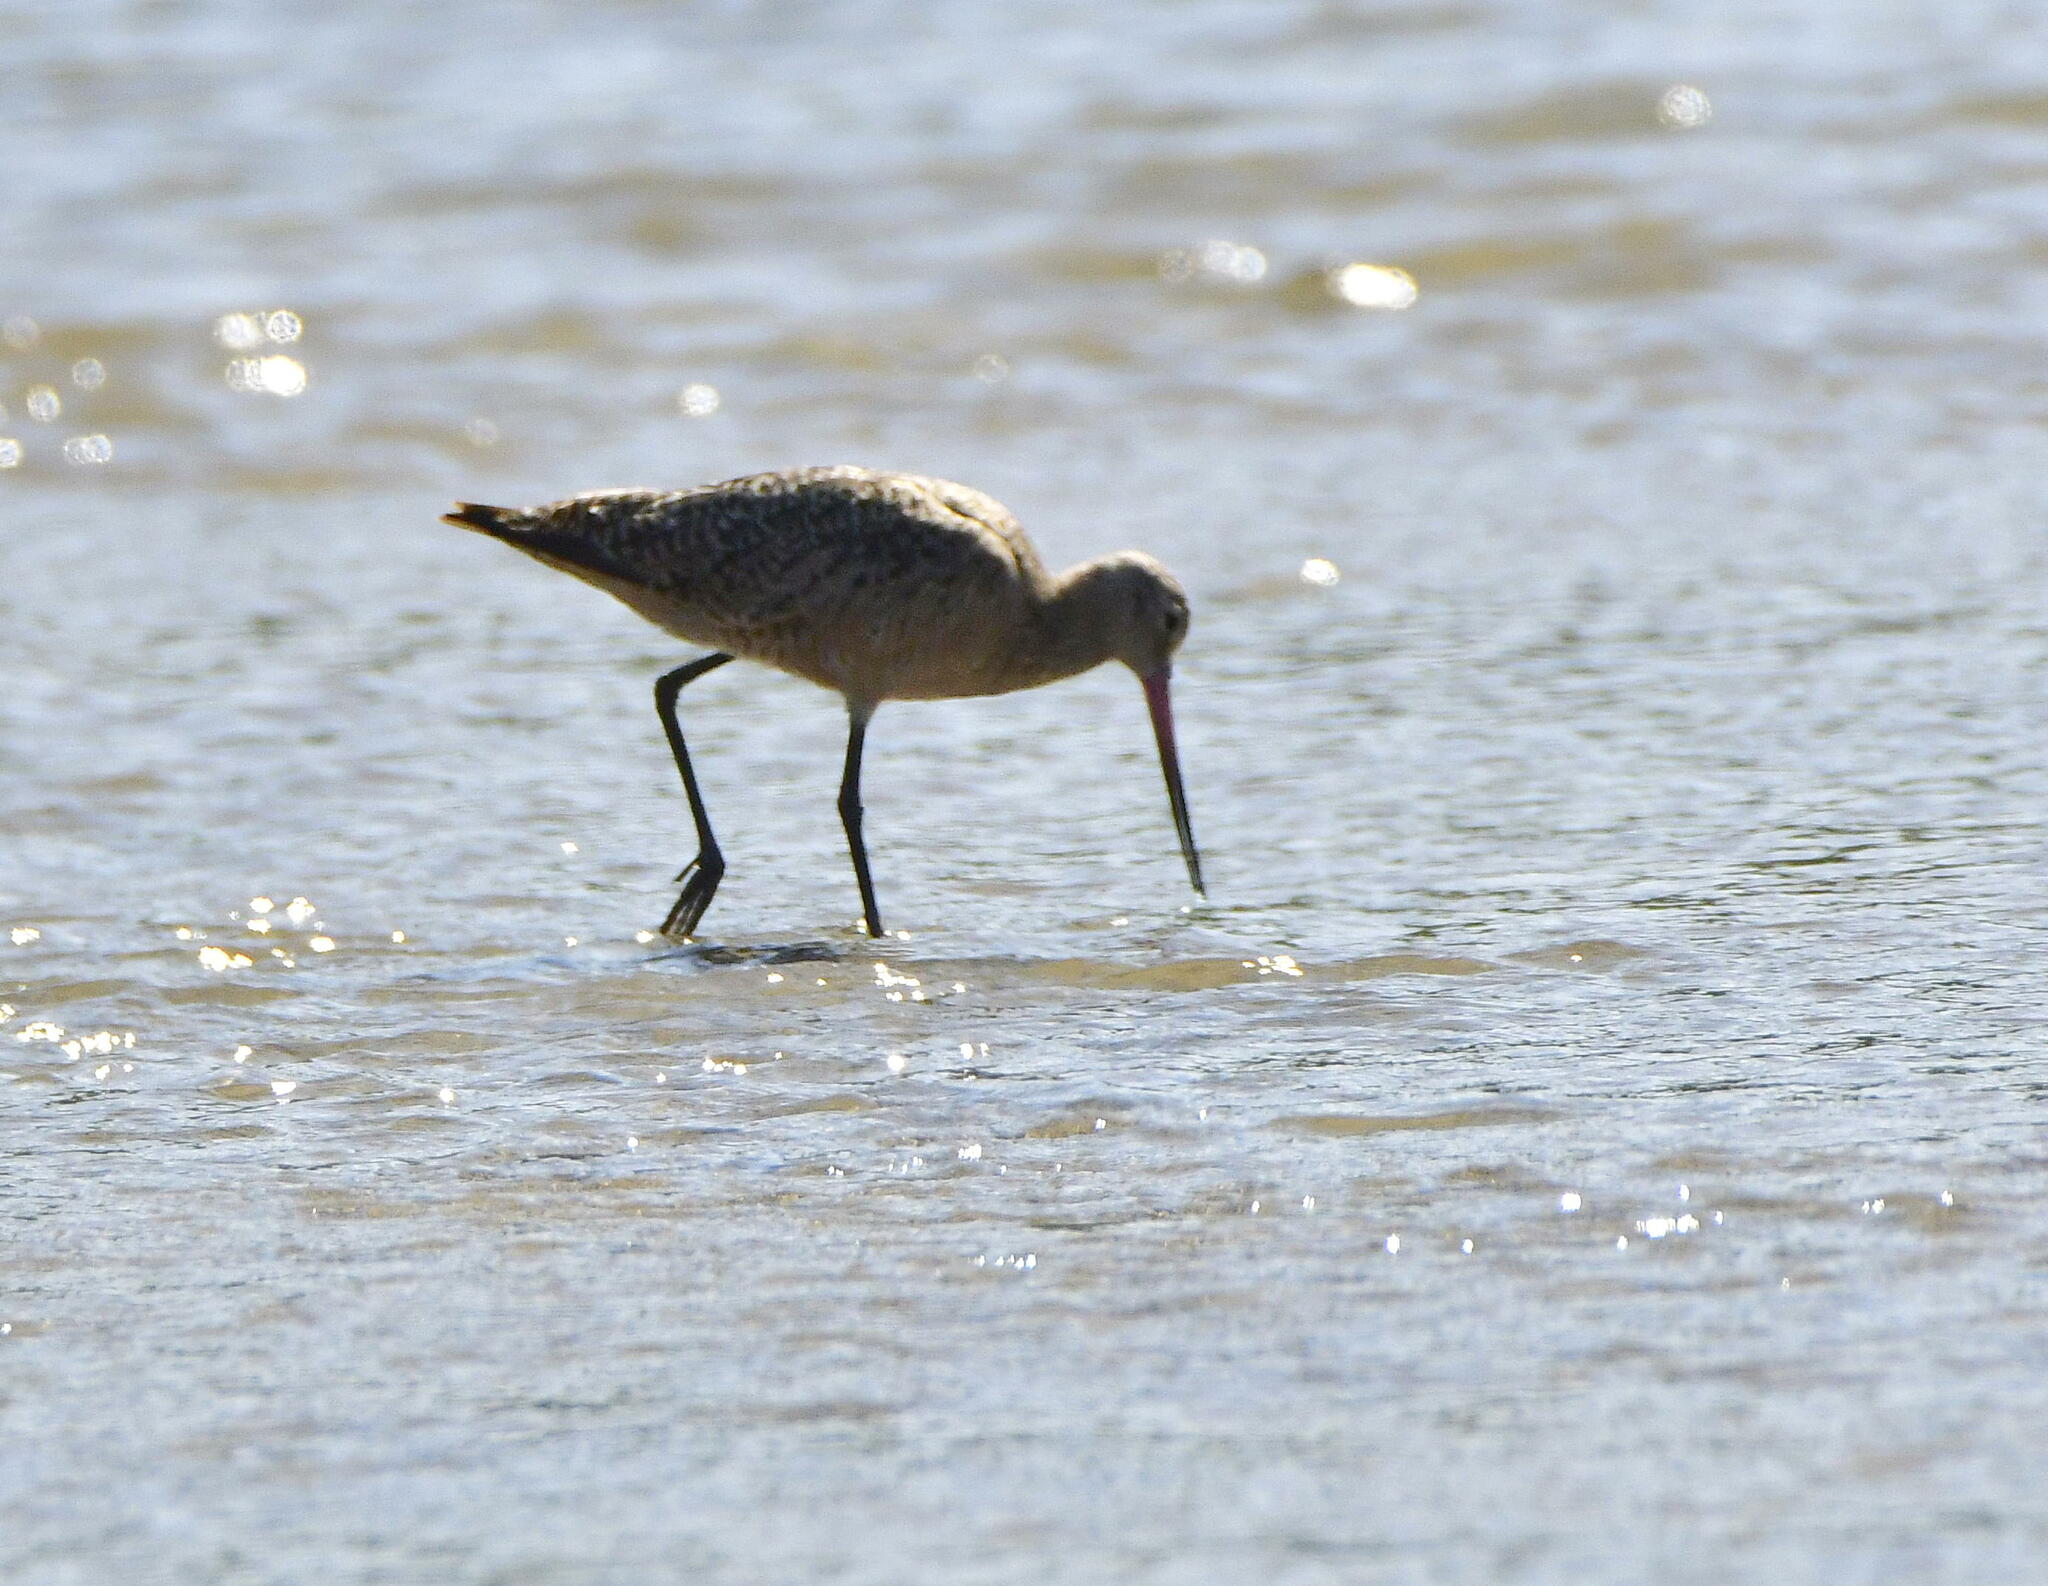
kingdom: Animalia
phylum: Chordata
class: Aves
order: Charadriiformes
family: Scolopacidae
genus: Limosa
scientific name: Limosa fedoa
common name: Marbled godwit
